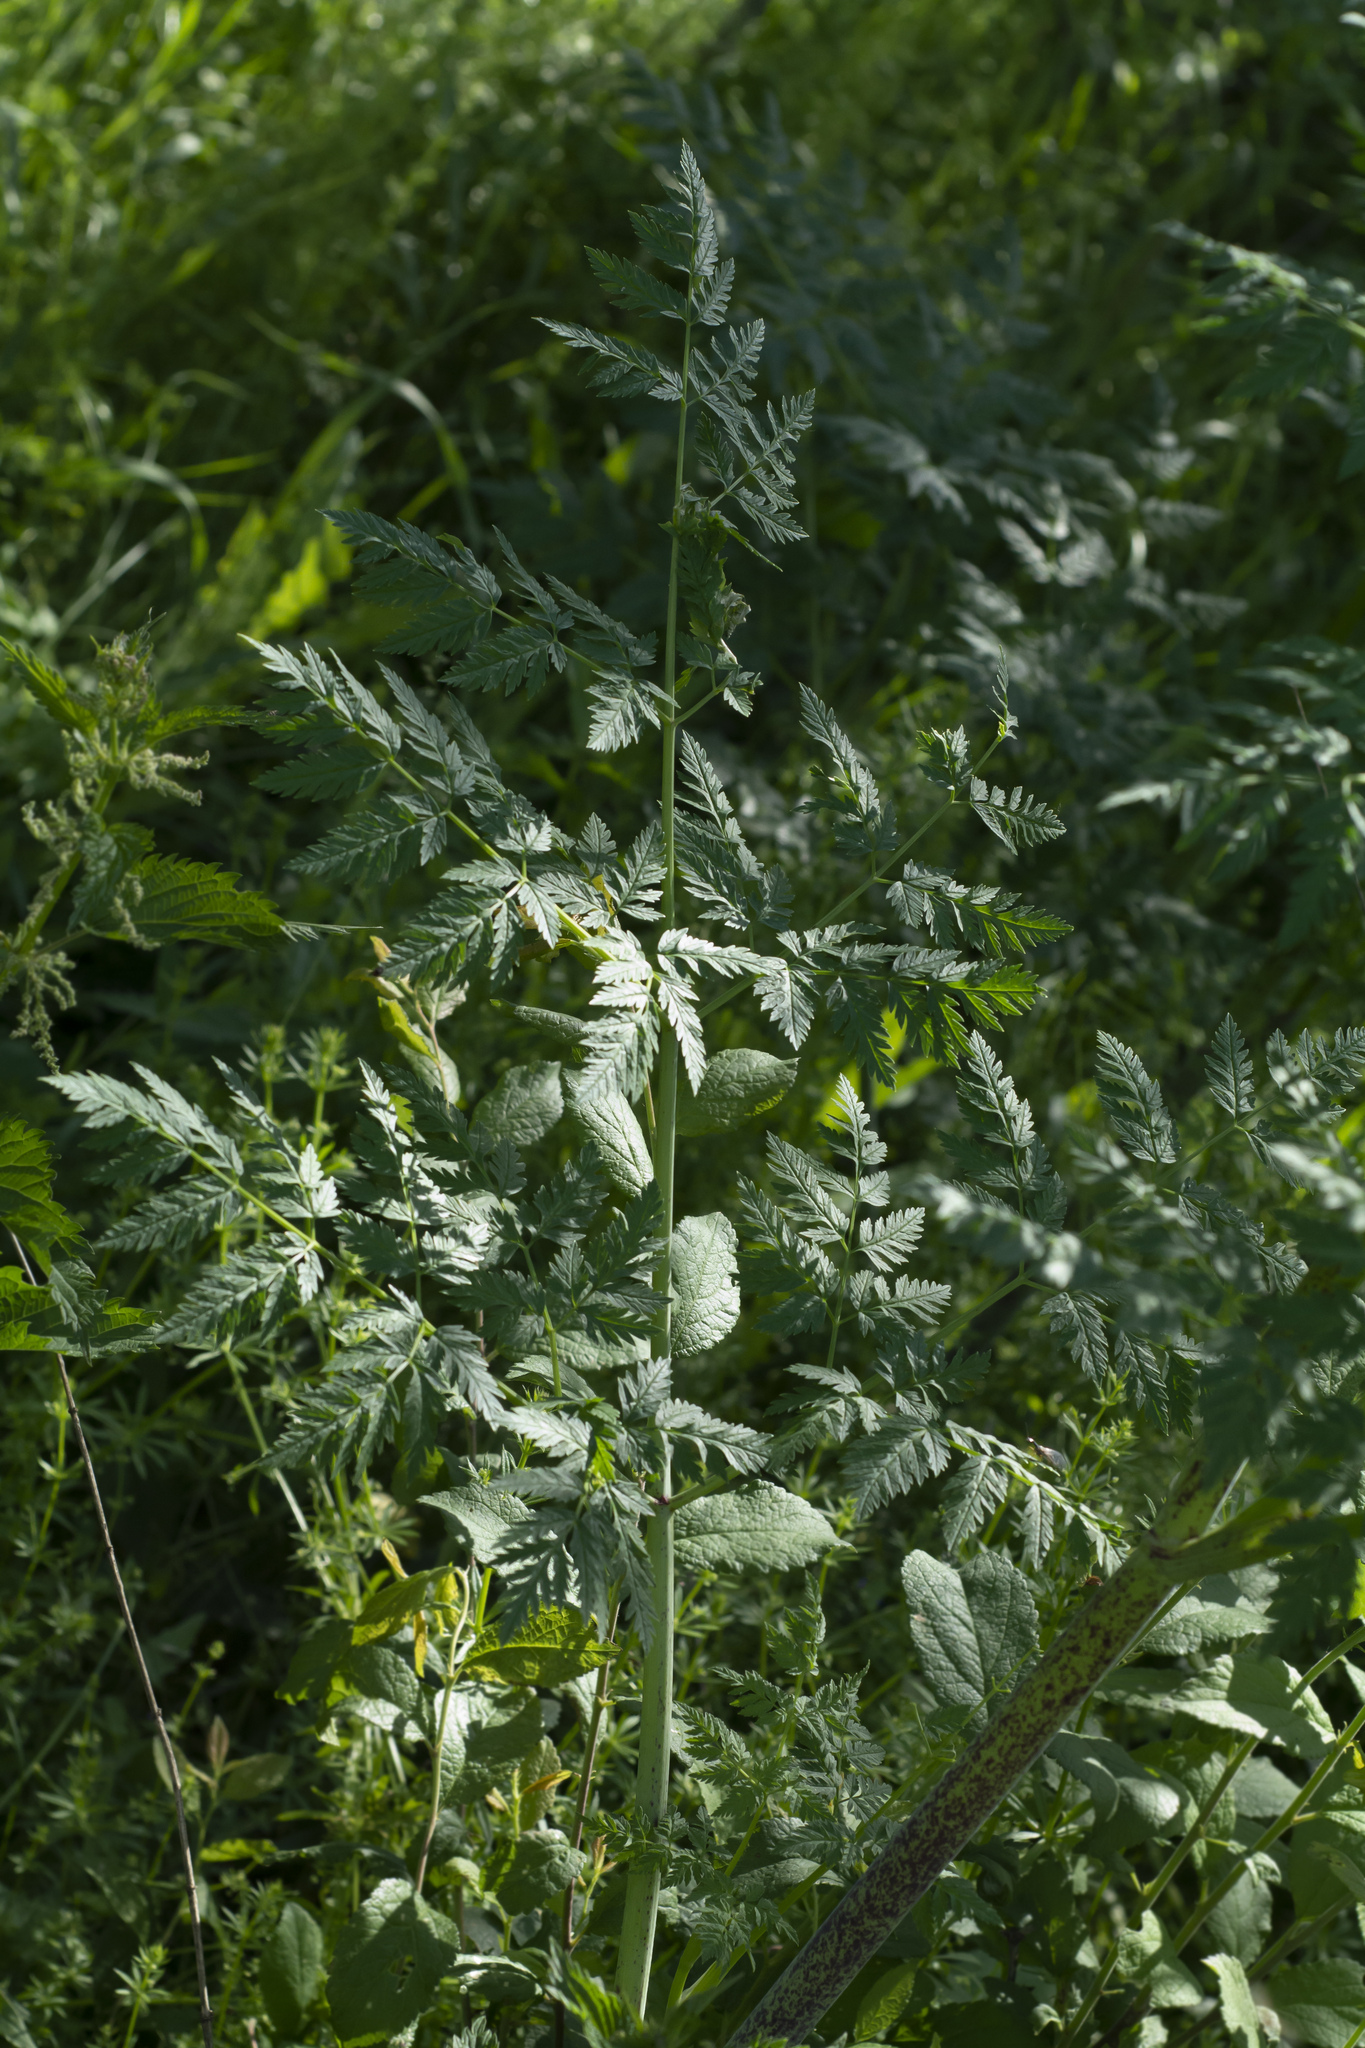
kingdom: Plantae
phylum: Tracheophyta
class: Magnoliopsida
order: Apiales
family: Apiaceae
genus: Conium
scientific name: Conium maculatum
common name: Hemlock
